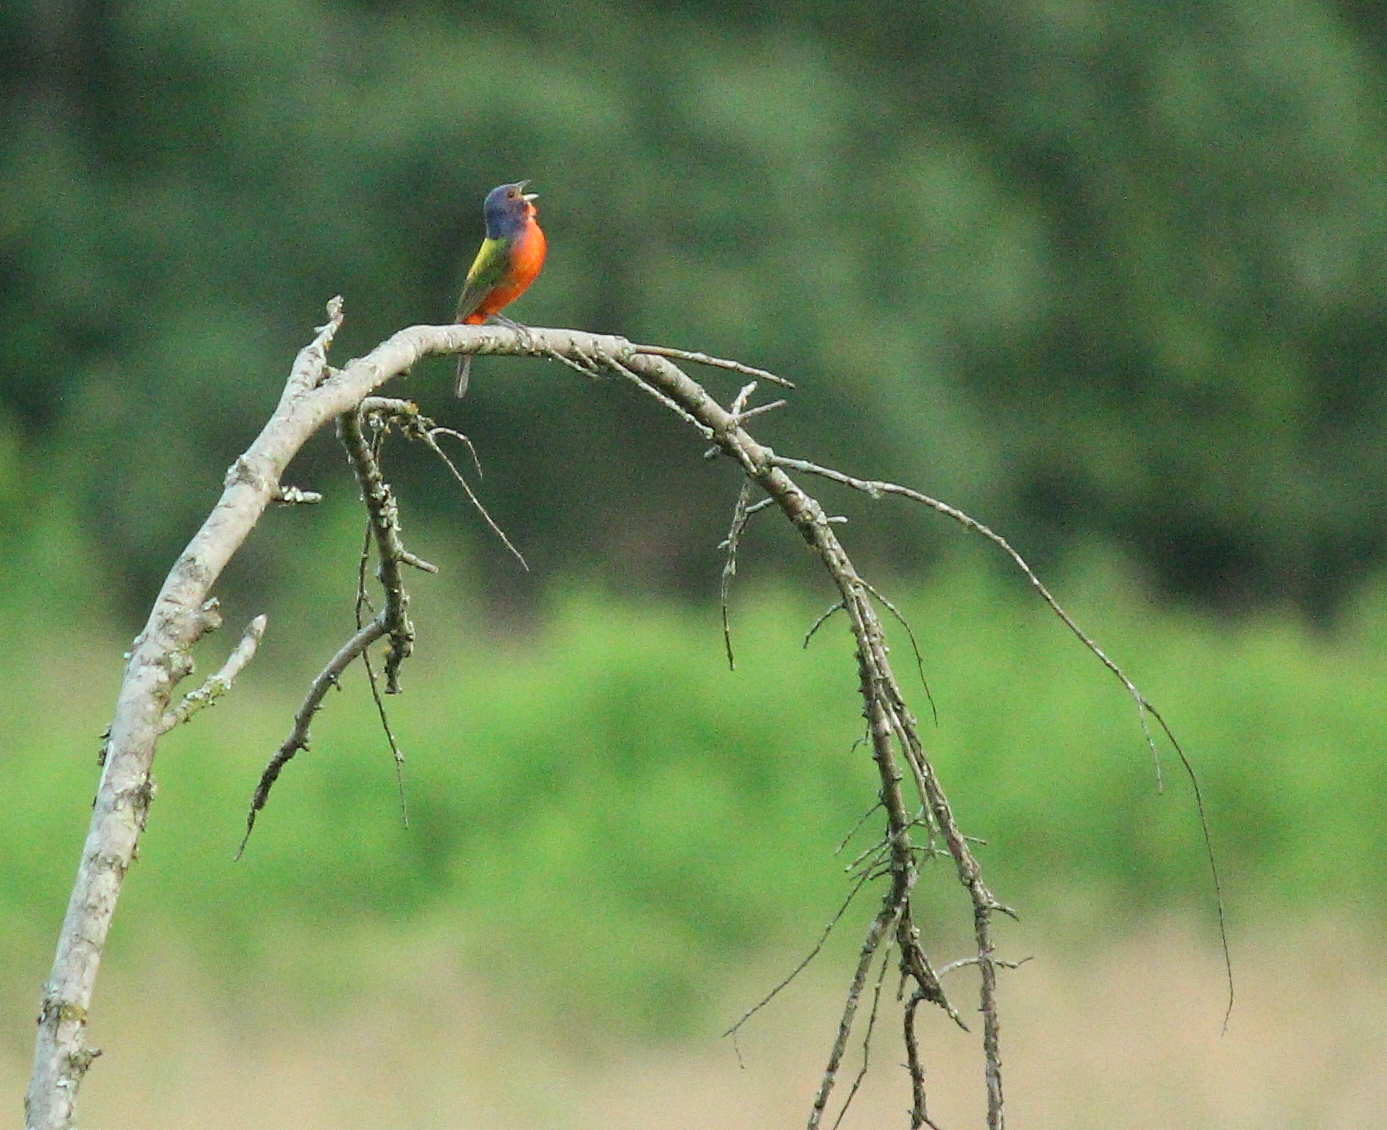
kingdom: Animalia
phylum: Chordata
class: Aves
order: Passeriformes
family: Cardinalidae
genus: Passerina
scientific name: Passerina ciris
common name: Painted bunting
